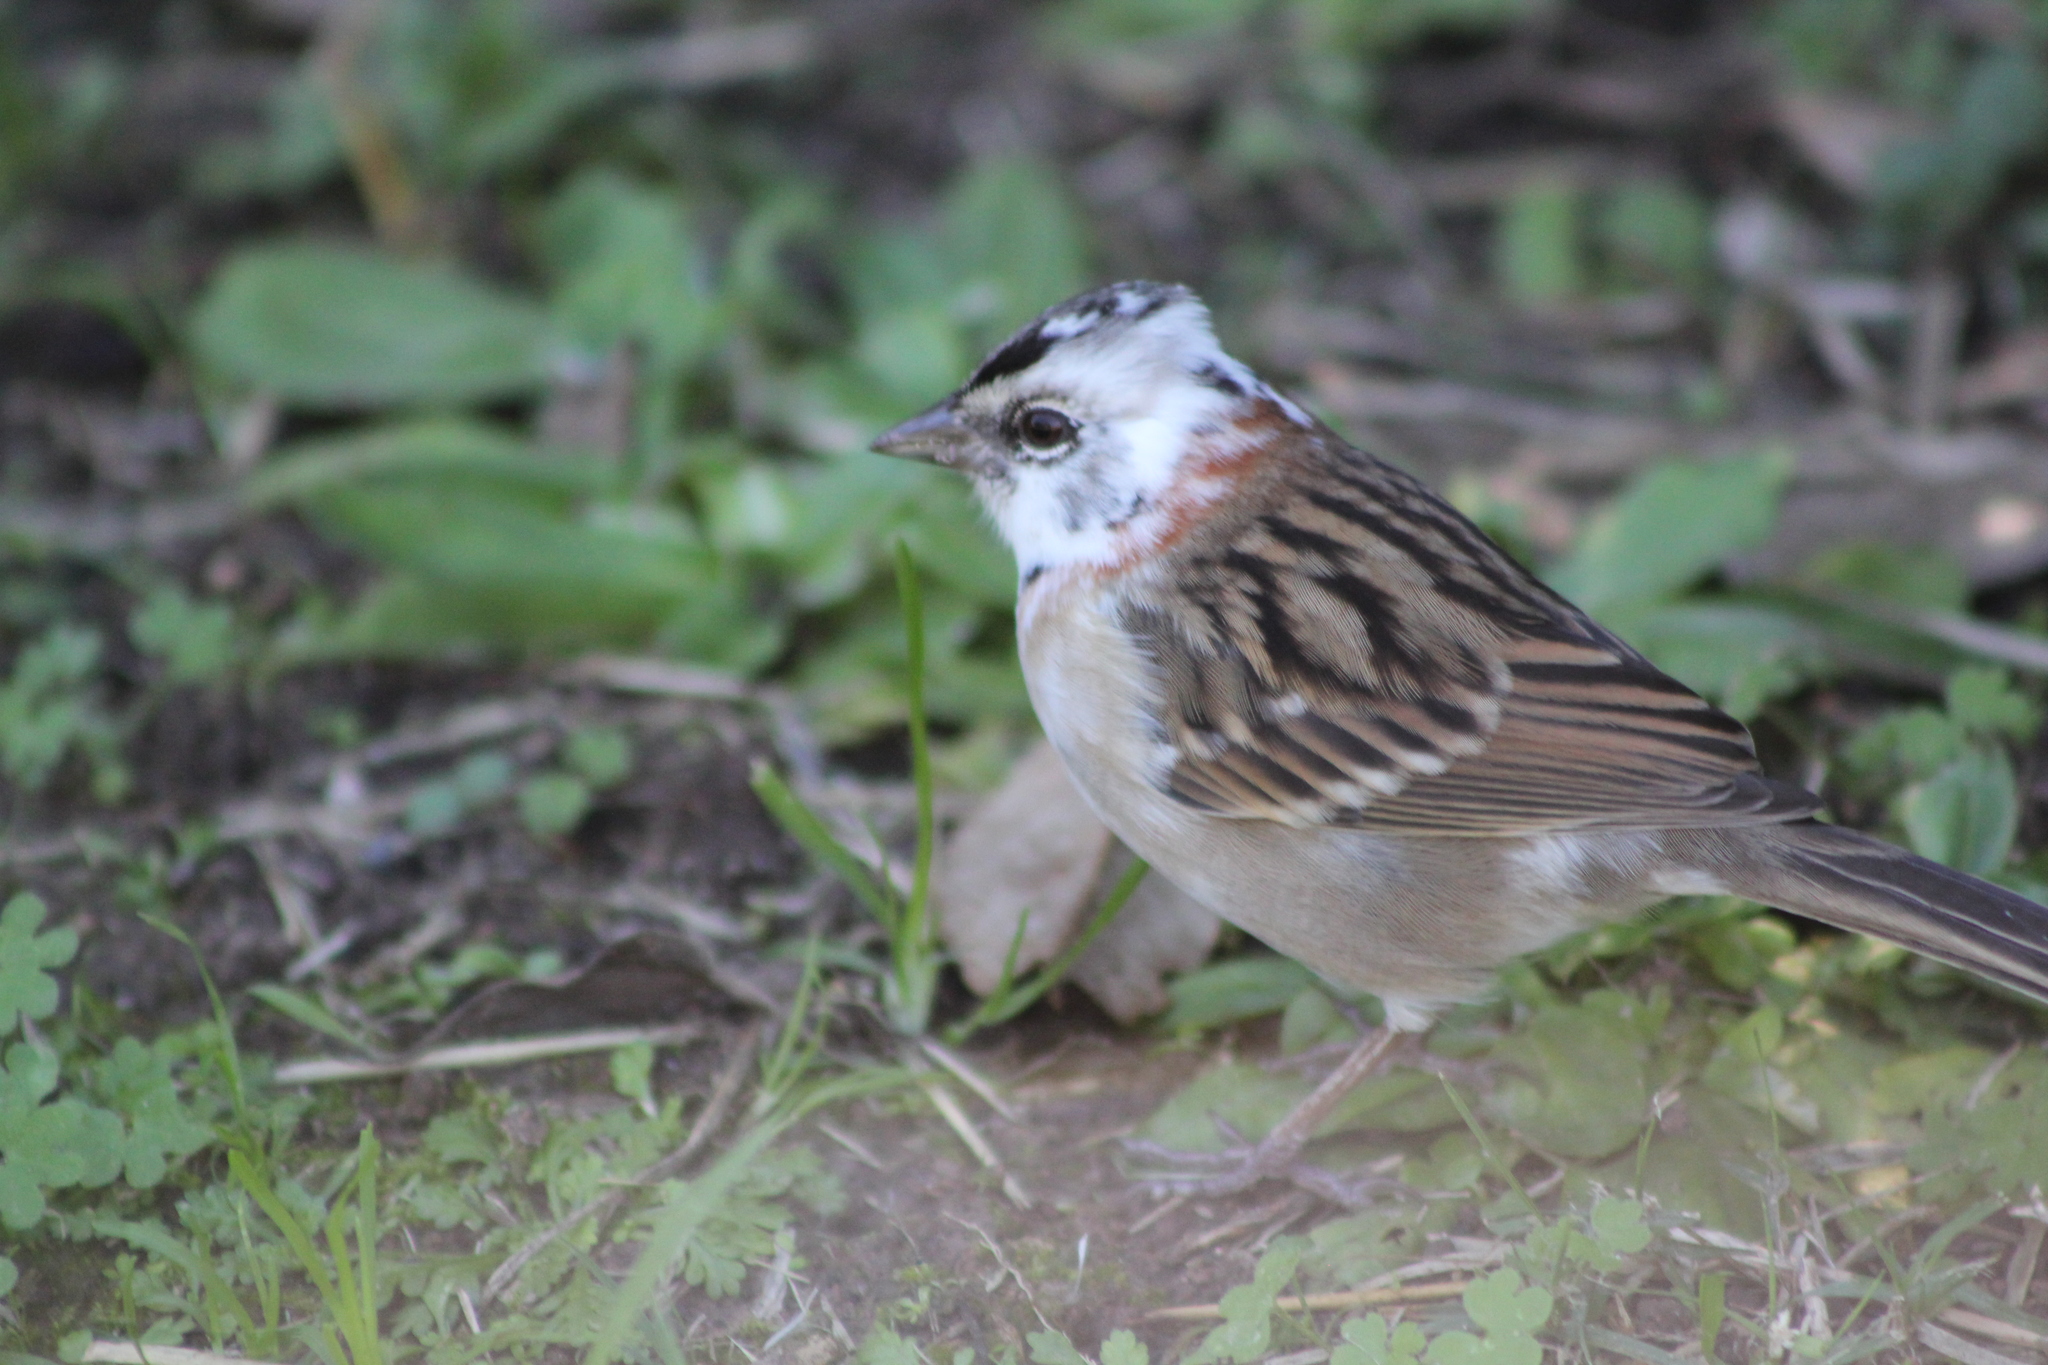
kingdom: Animalia
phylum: Chordata
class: Aves
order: Passeriformes
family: Passerellidae
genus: Zonotrichia
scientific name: Zonotrichia capensis
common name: Rufous-collared sparrow
